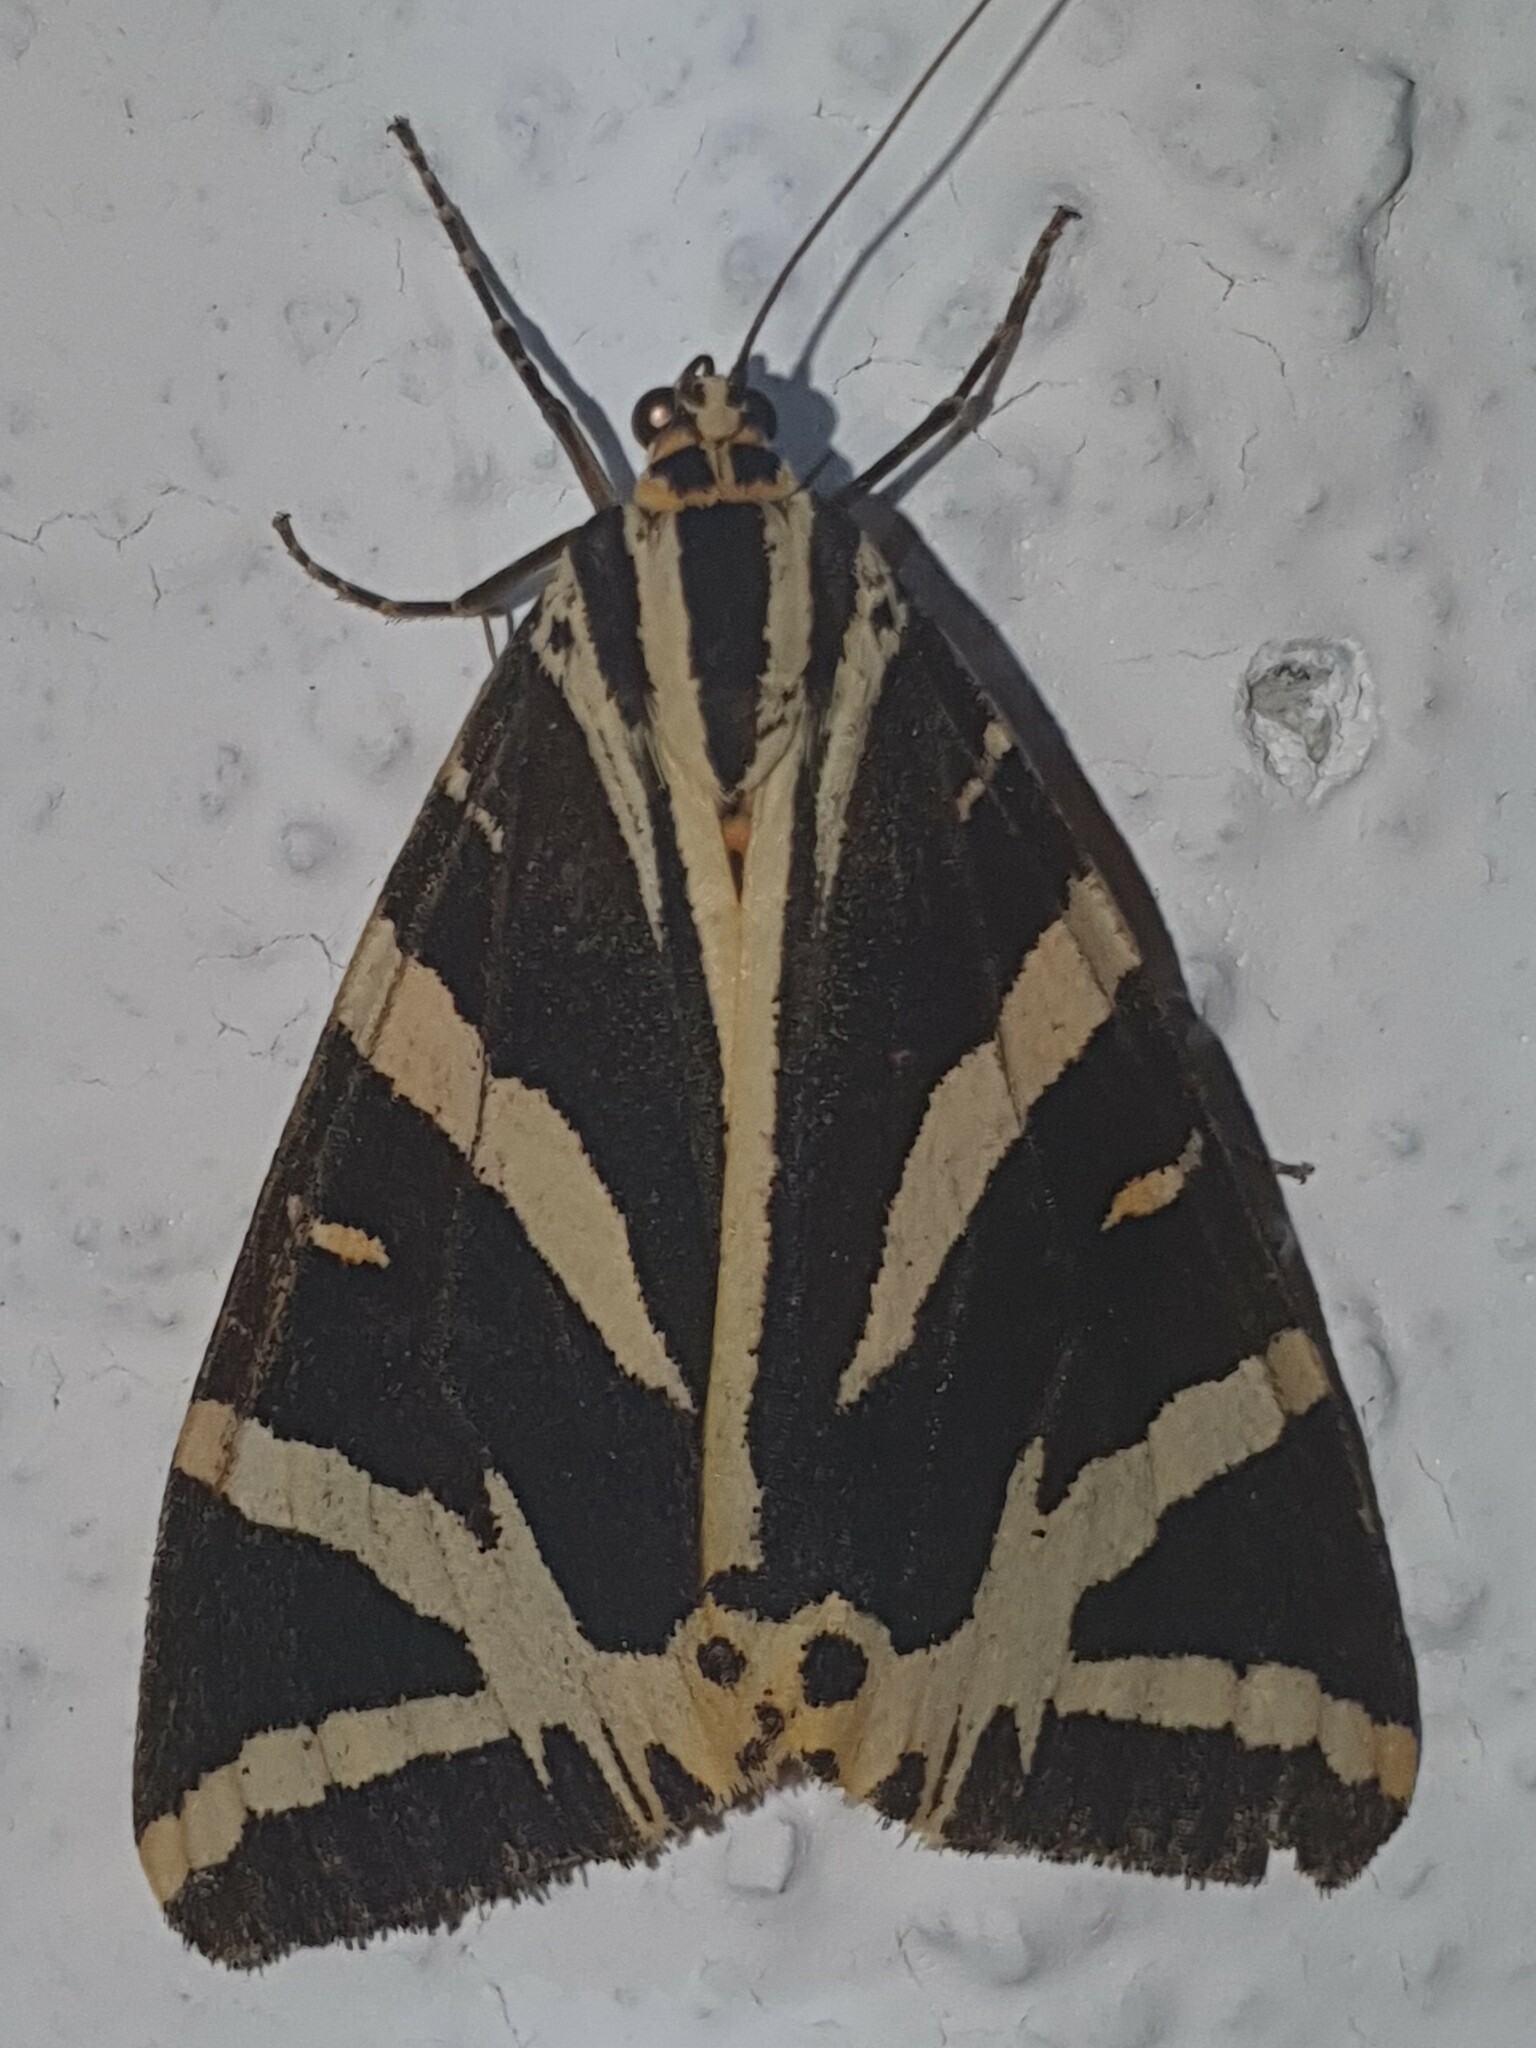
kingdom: Animalia
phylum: Arthropoda
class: Insecta
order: Lepidoptera
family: Erebidae
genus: Euplagia
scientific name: Euplagia quadripunctaria
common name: Jersey tiger
